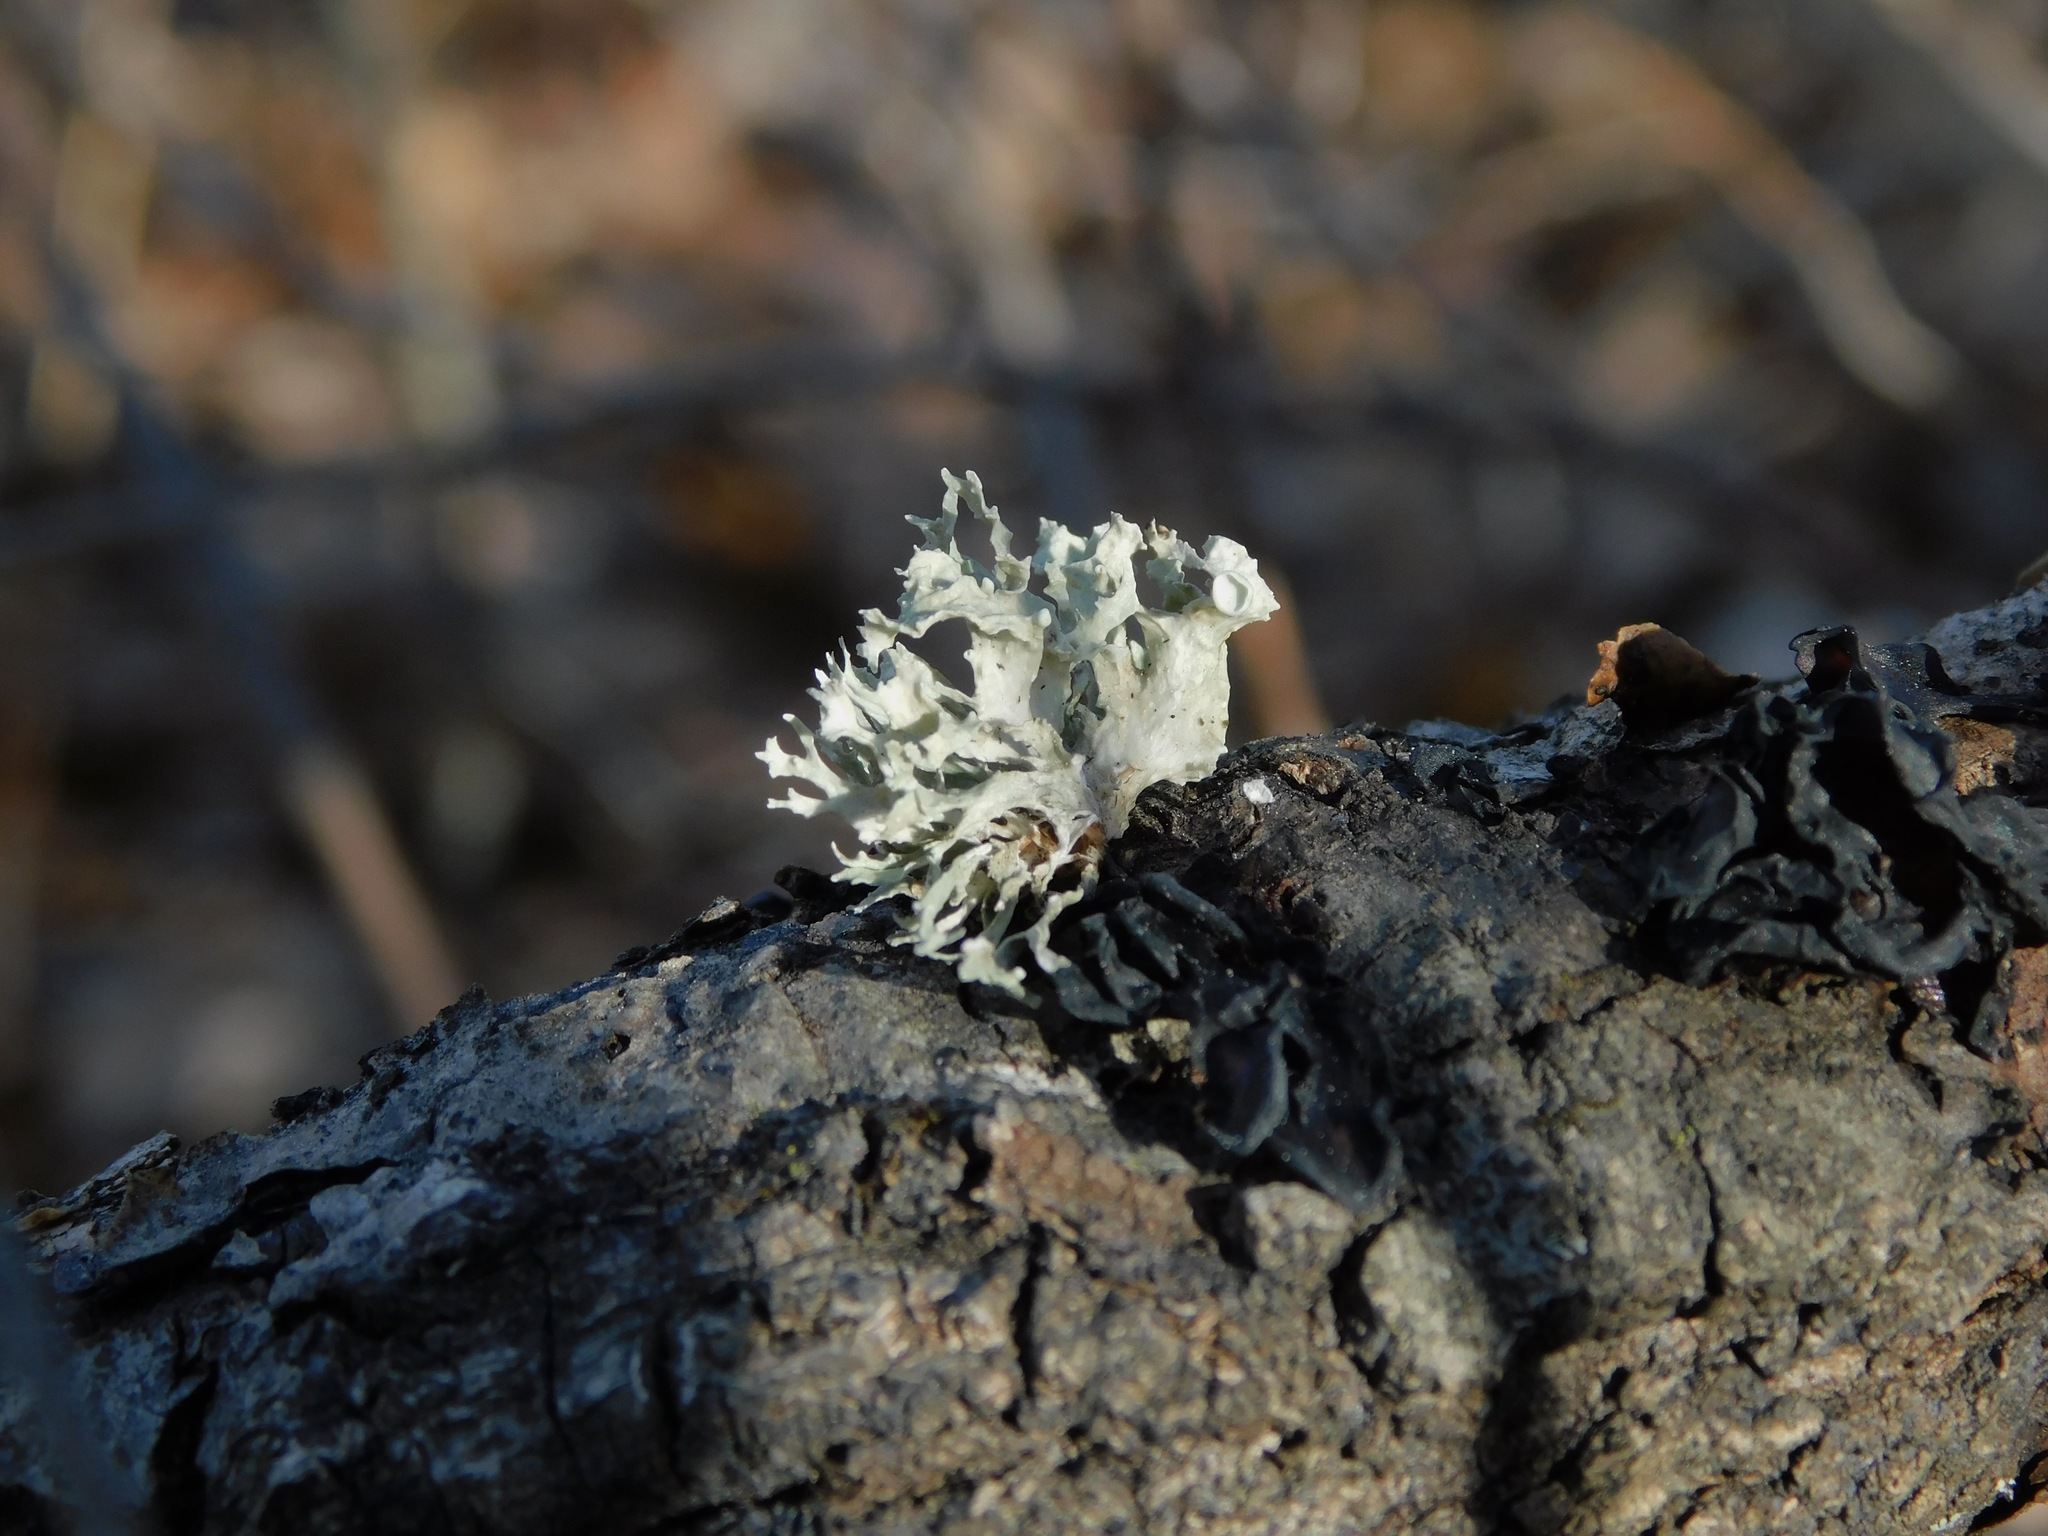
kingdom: Fungi
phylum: Ascomycota
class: Lecanoromycetes
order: Lecanorales
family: Ramalinaceae
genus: Ramalina
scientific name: Ramalina americana
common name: Sinewed bush lichen
